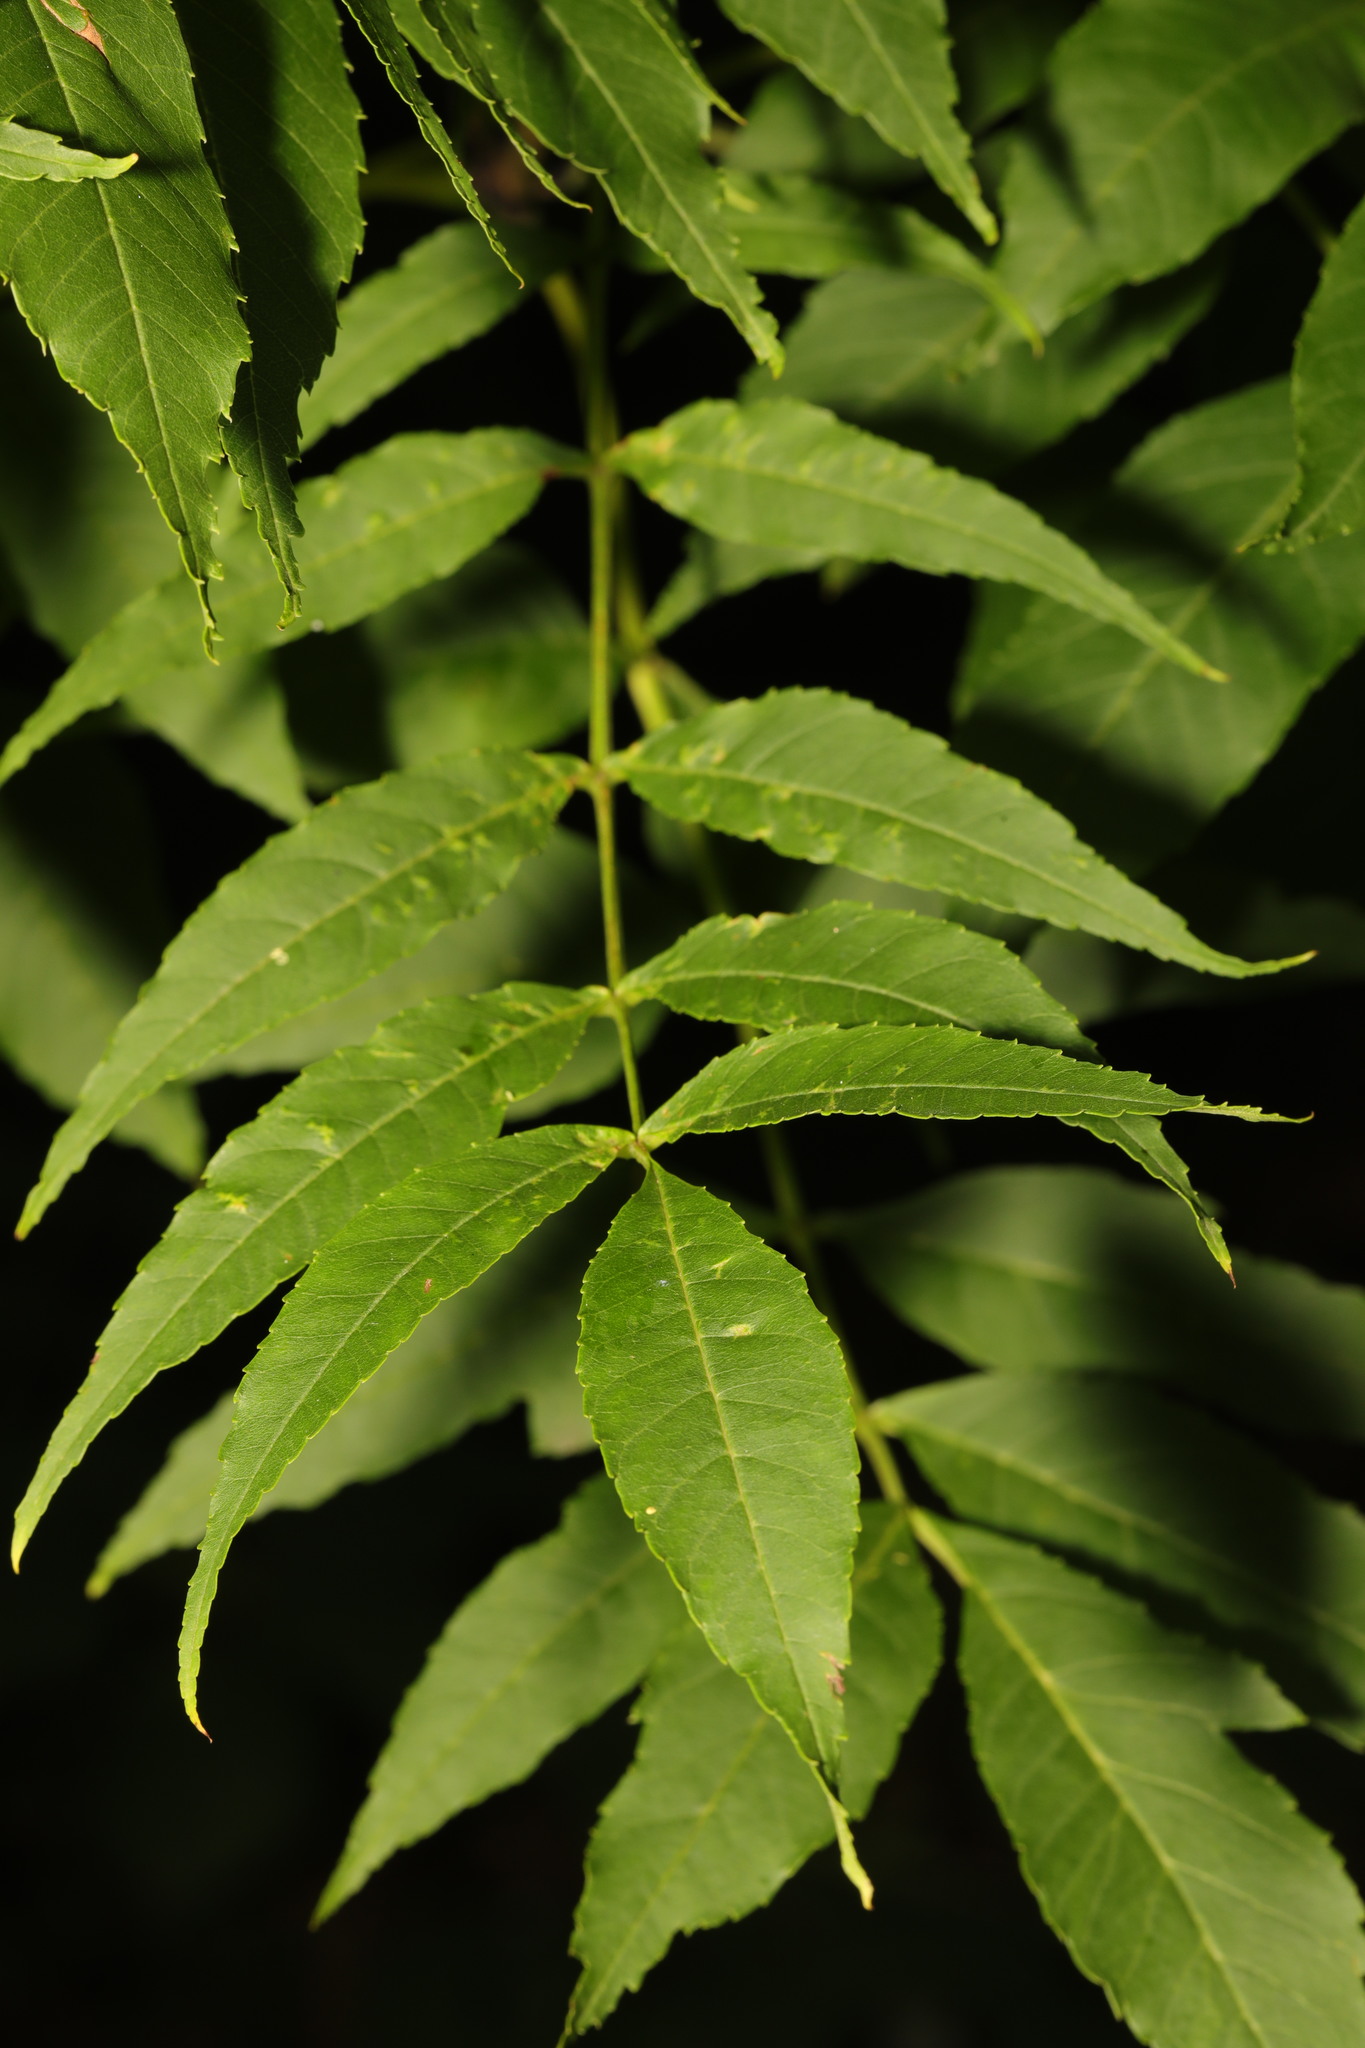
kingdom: Plantae
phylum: Tracheophyta
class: Magnoliopsida
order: Lamiales
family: Oleaceae
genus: Fraxinus
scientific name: Fraxinus excelsior
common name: European ash
